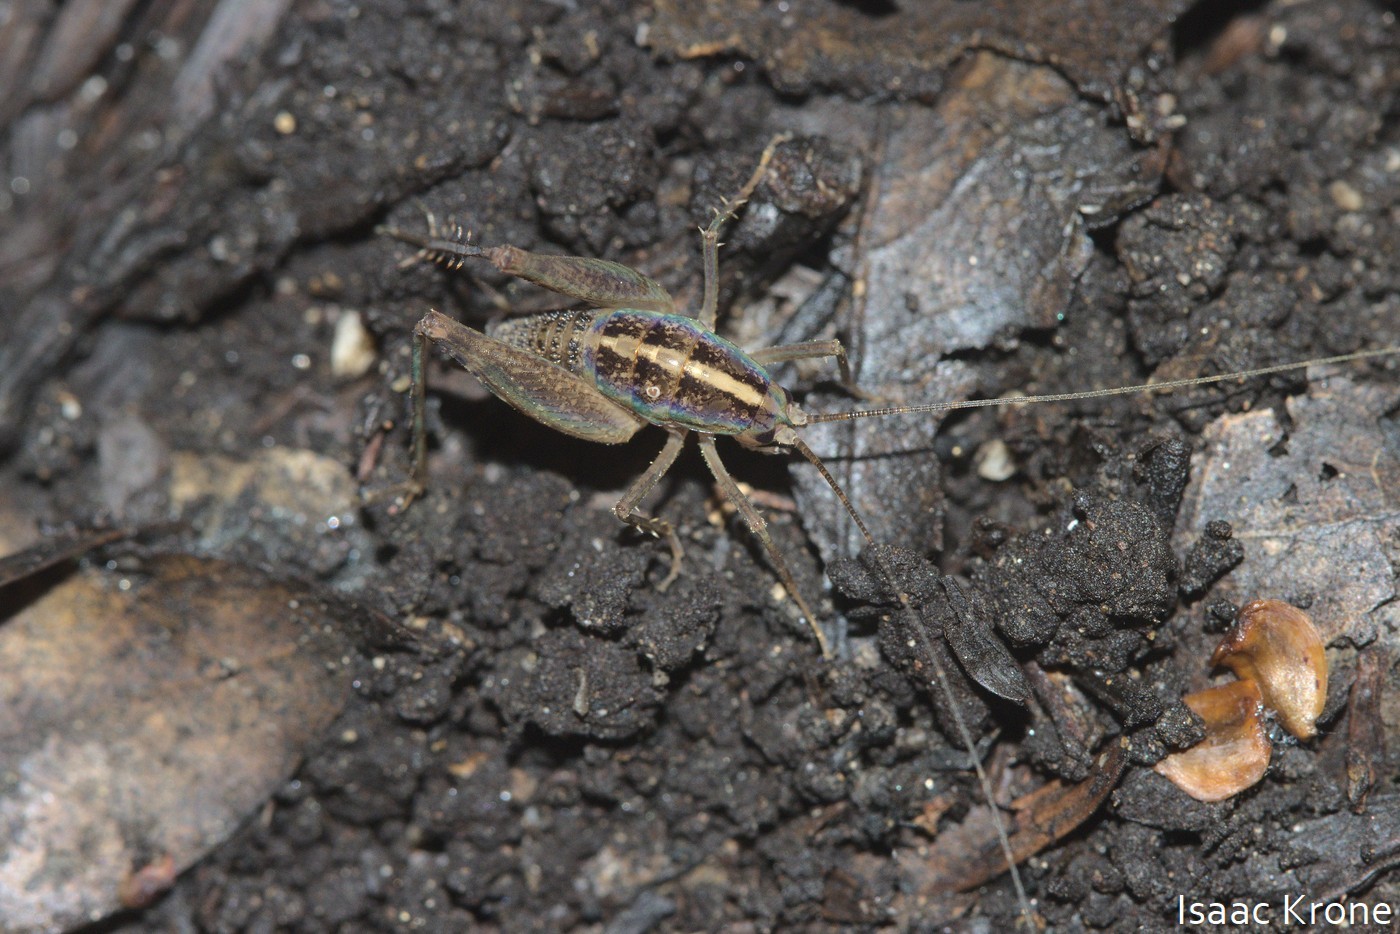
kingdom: Animalia
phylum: Arthropoda
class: Insecta
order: Orthoptera
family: Rhaphidophoridae
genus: Pristoceuthophilus
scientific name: Pristoceuthophilus
